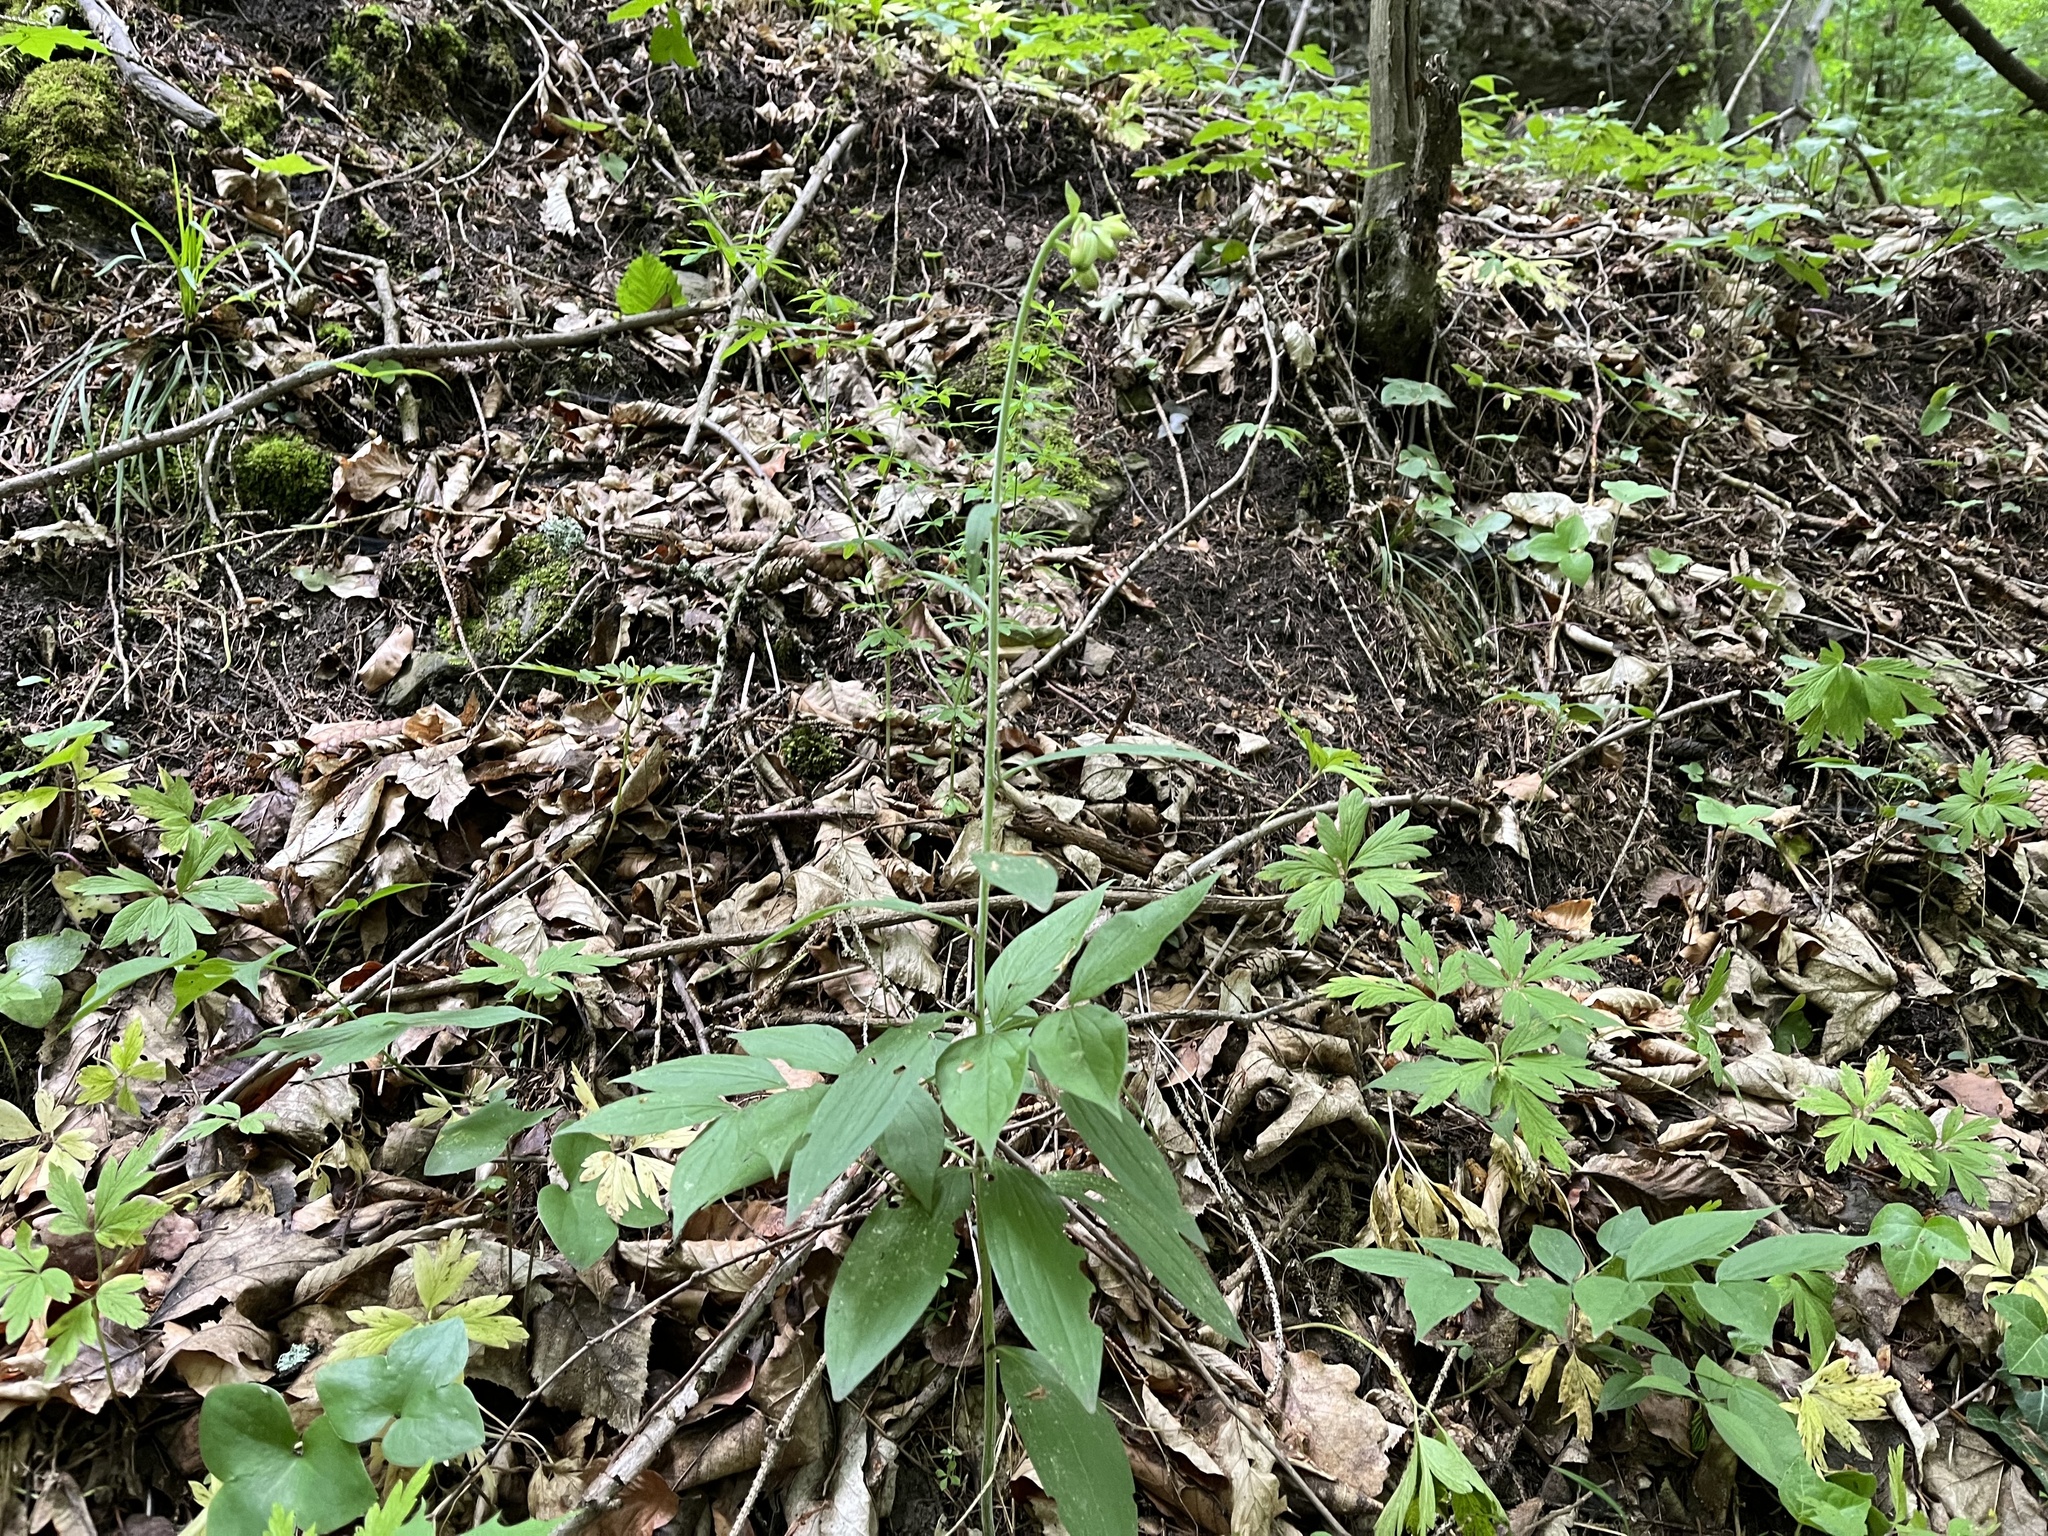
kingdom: Plantae
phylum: Tracheophyta
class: Liliopsida
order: Liliales
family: Liliaceae
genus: Lilium
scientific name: Lilium martagon
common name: Martagon lily
